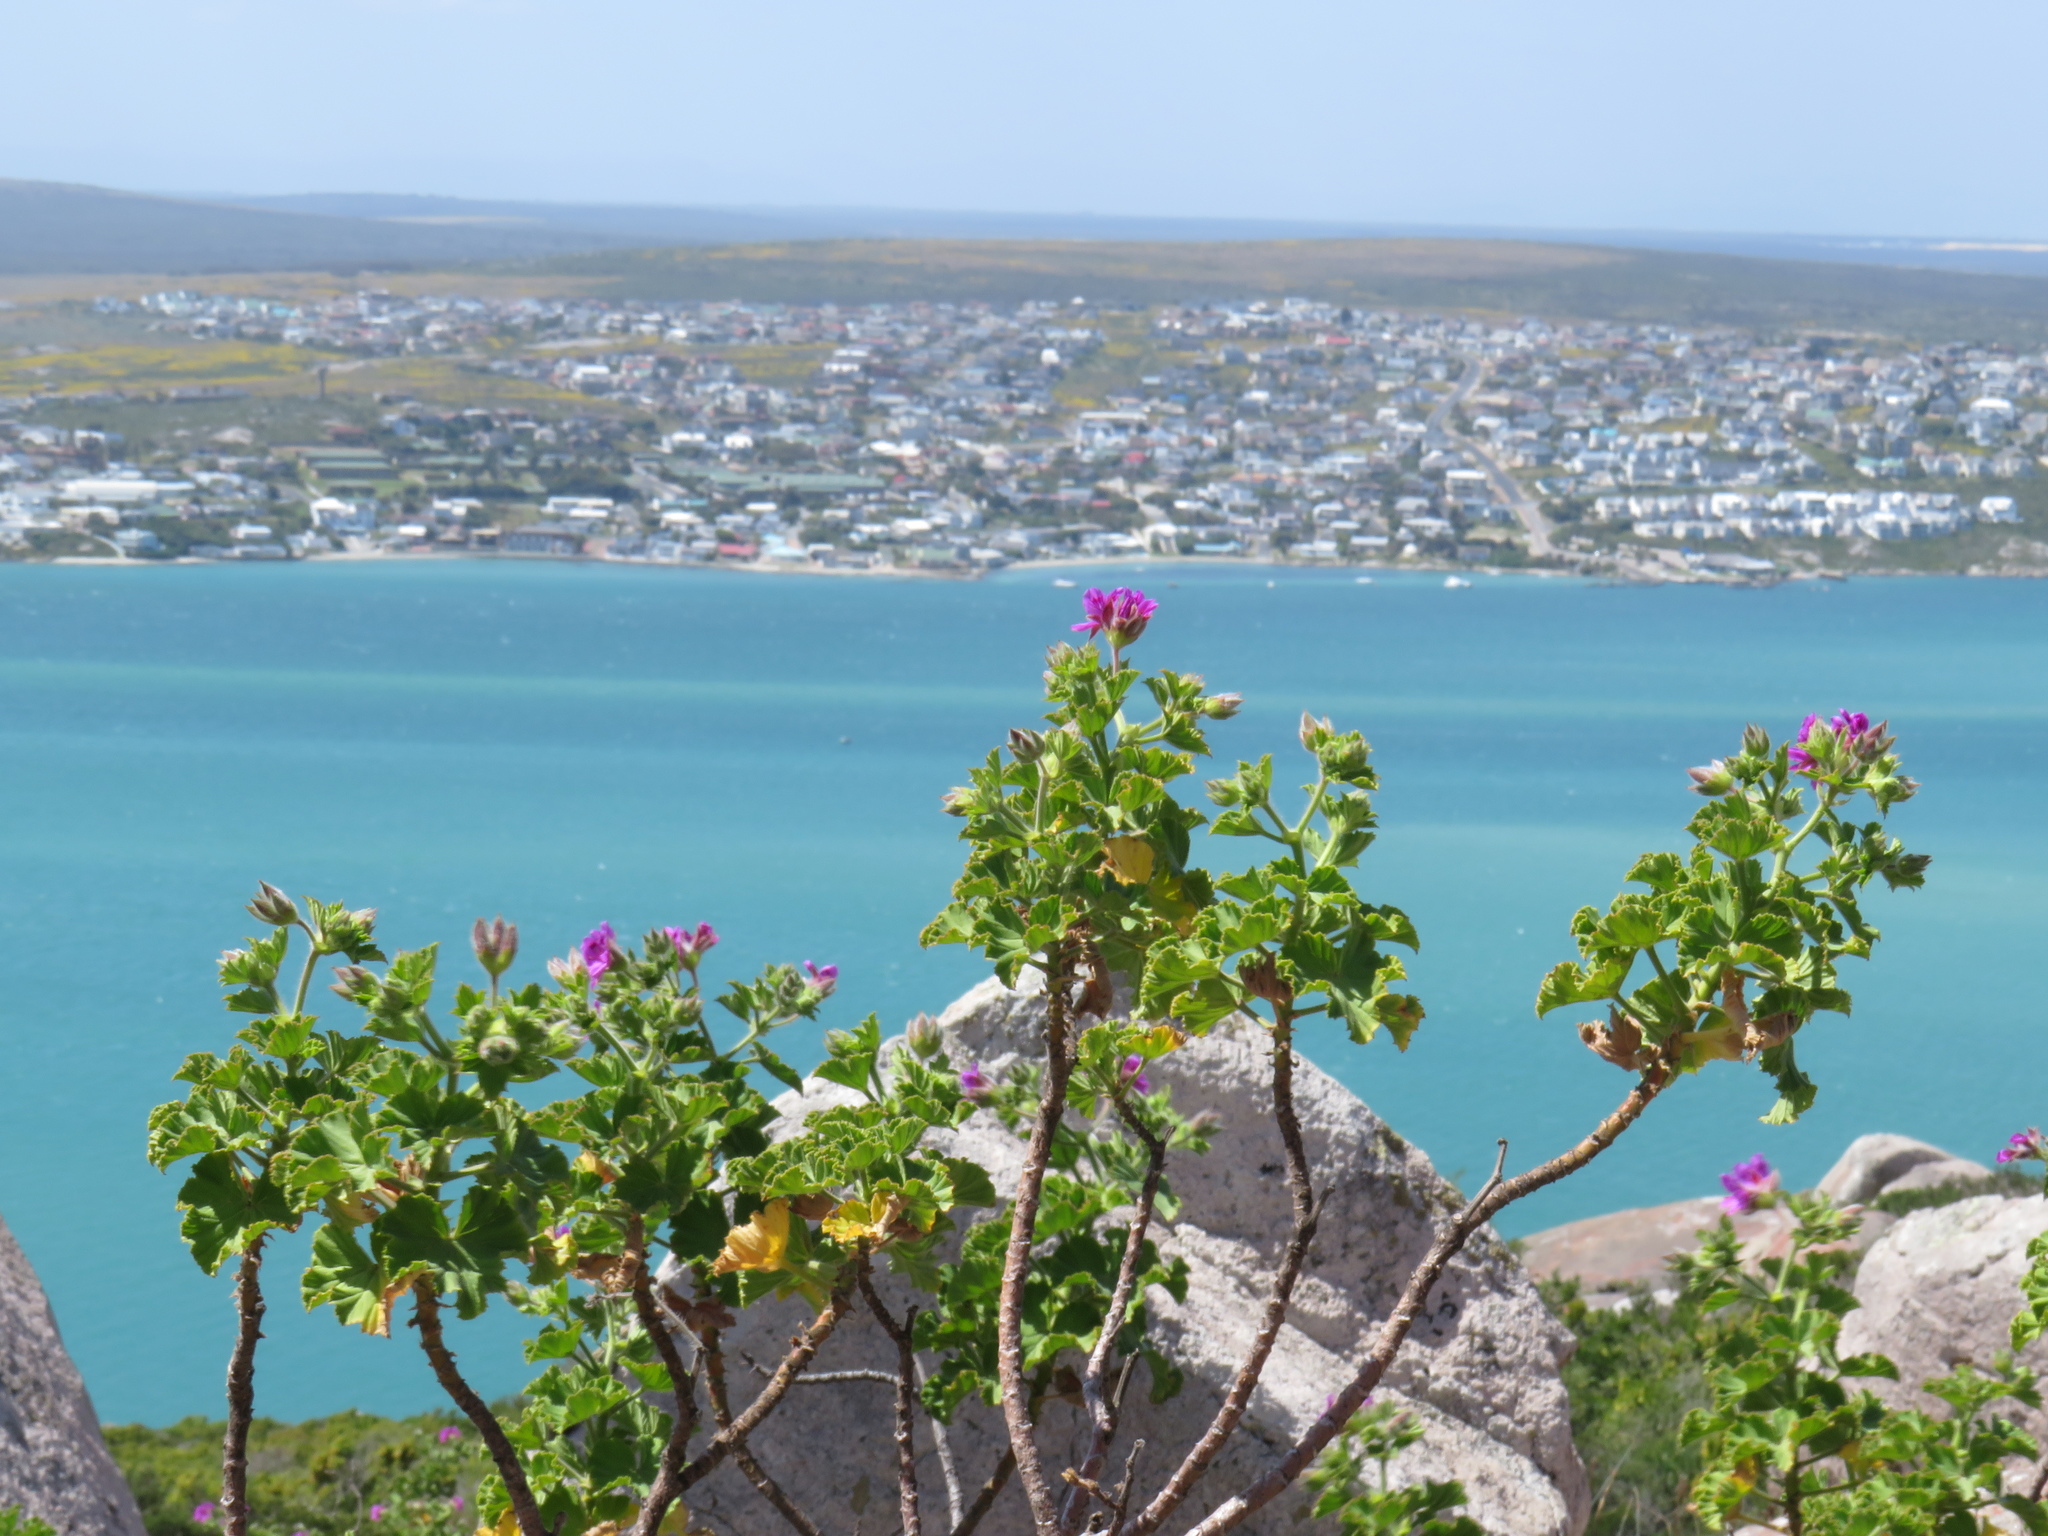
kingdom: Plantae
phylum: Tracheophyta
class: Magnoliopsida
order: Geraniales
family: Geraniaceae
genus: Pelargonium
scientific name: Pelargonium cucullatum
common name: Tree pelargonium
